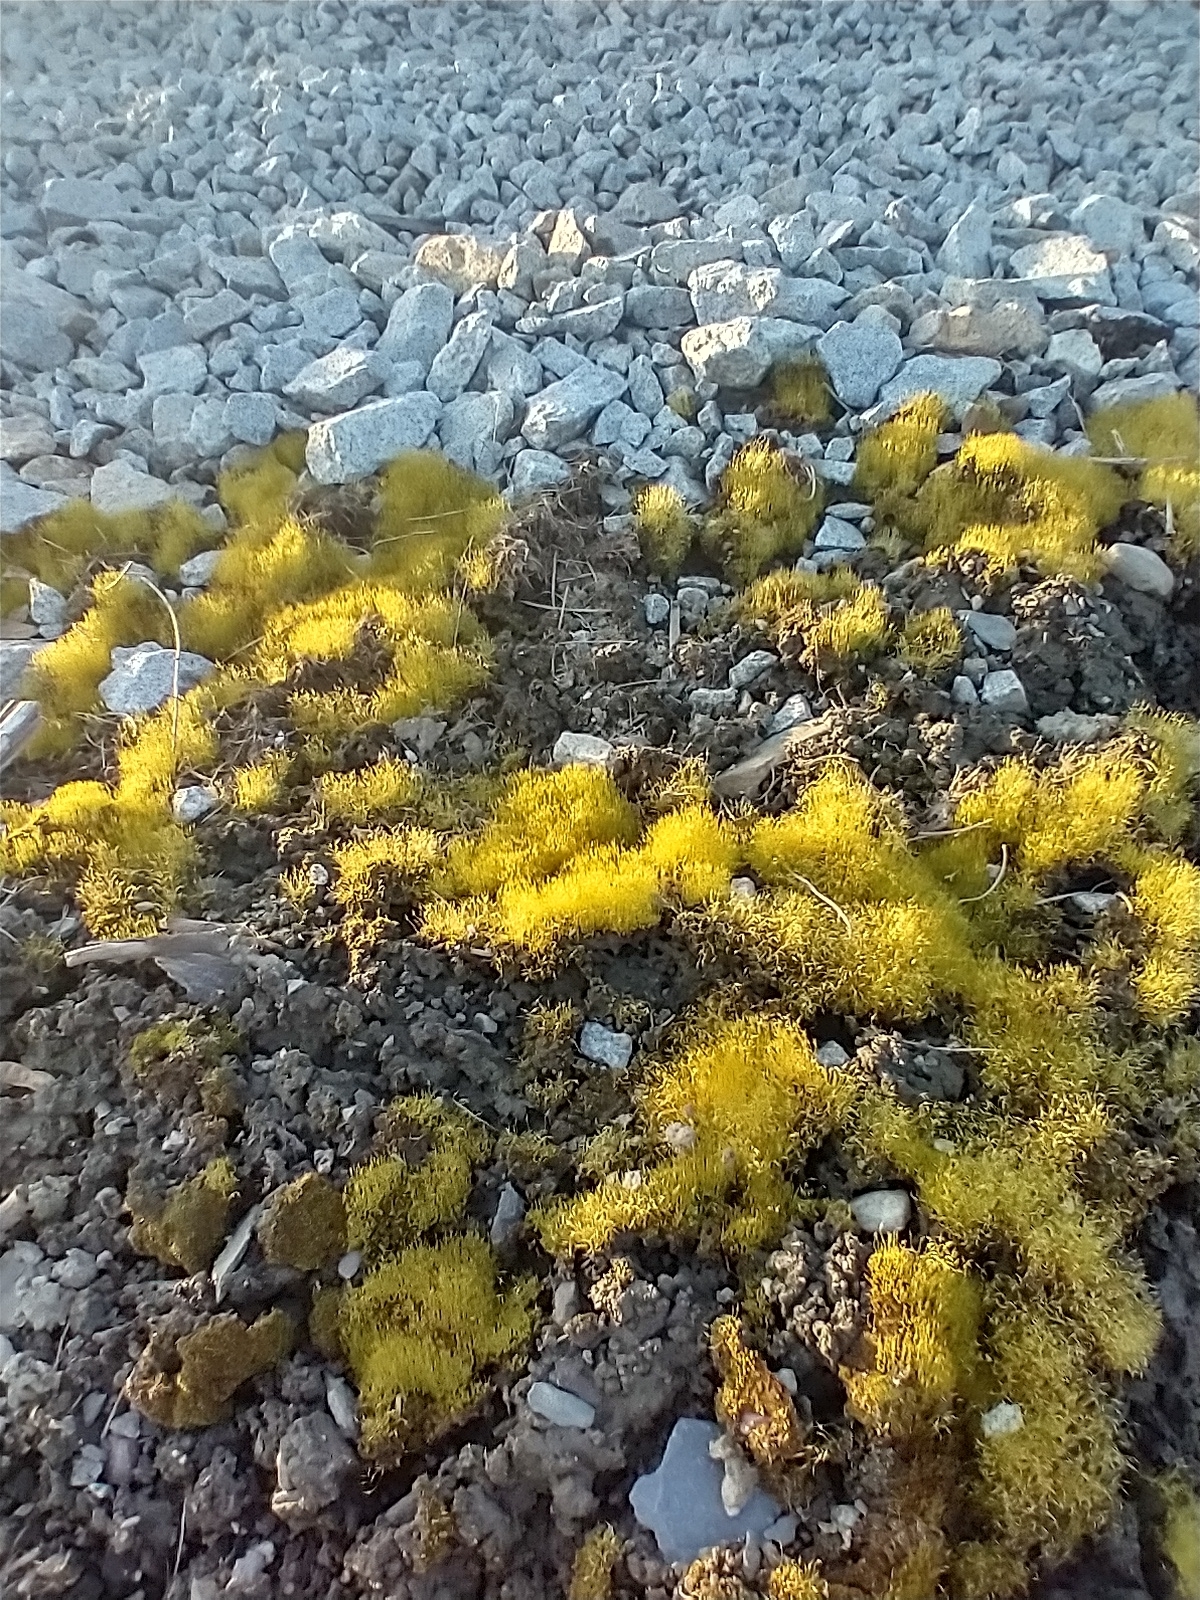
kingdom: Plantae
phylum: Bryophyta
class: Bryopsida
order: Funariales
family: Funariaceae
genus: Funaria
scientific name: Funaria hygrometrica
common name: Common cord moss
